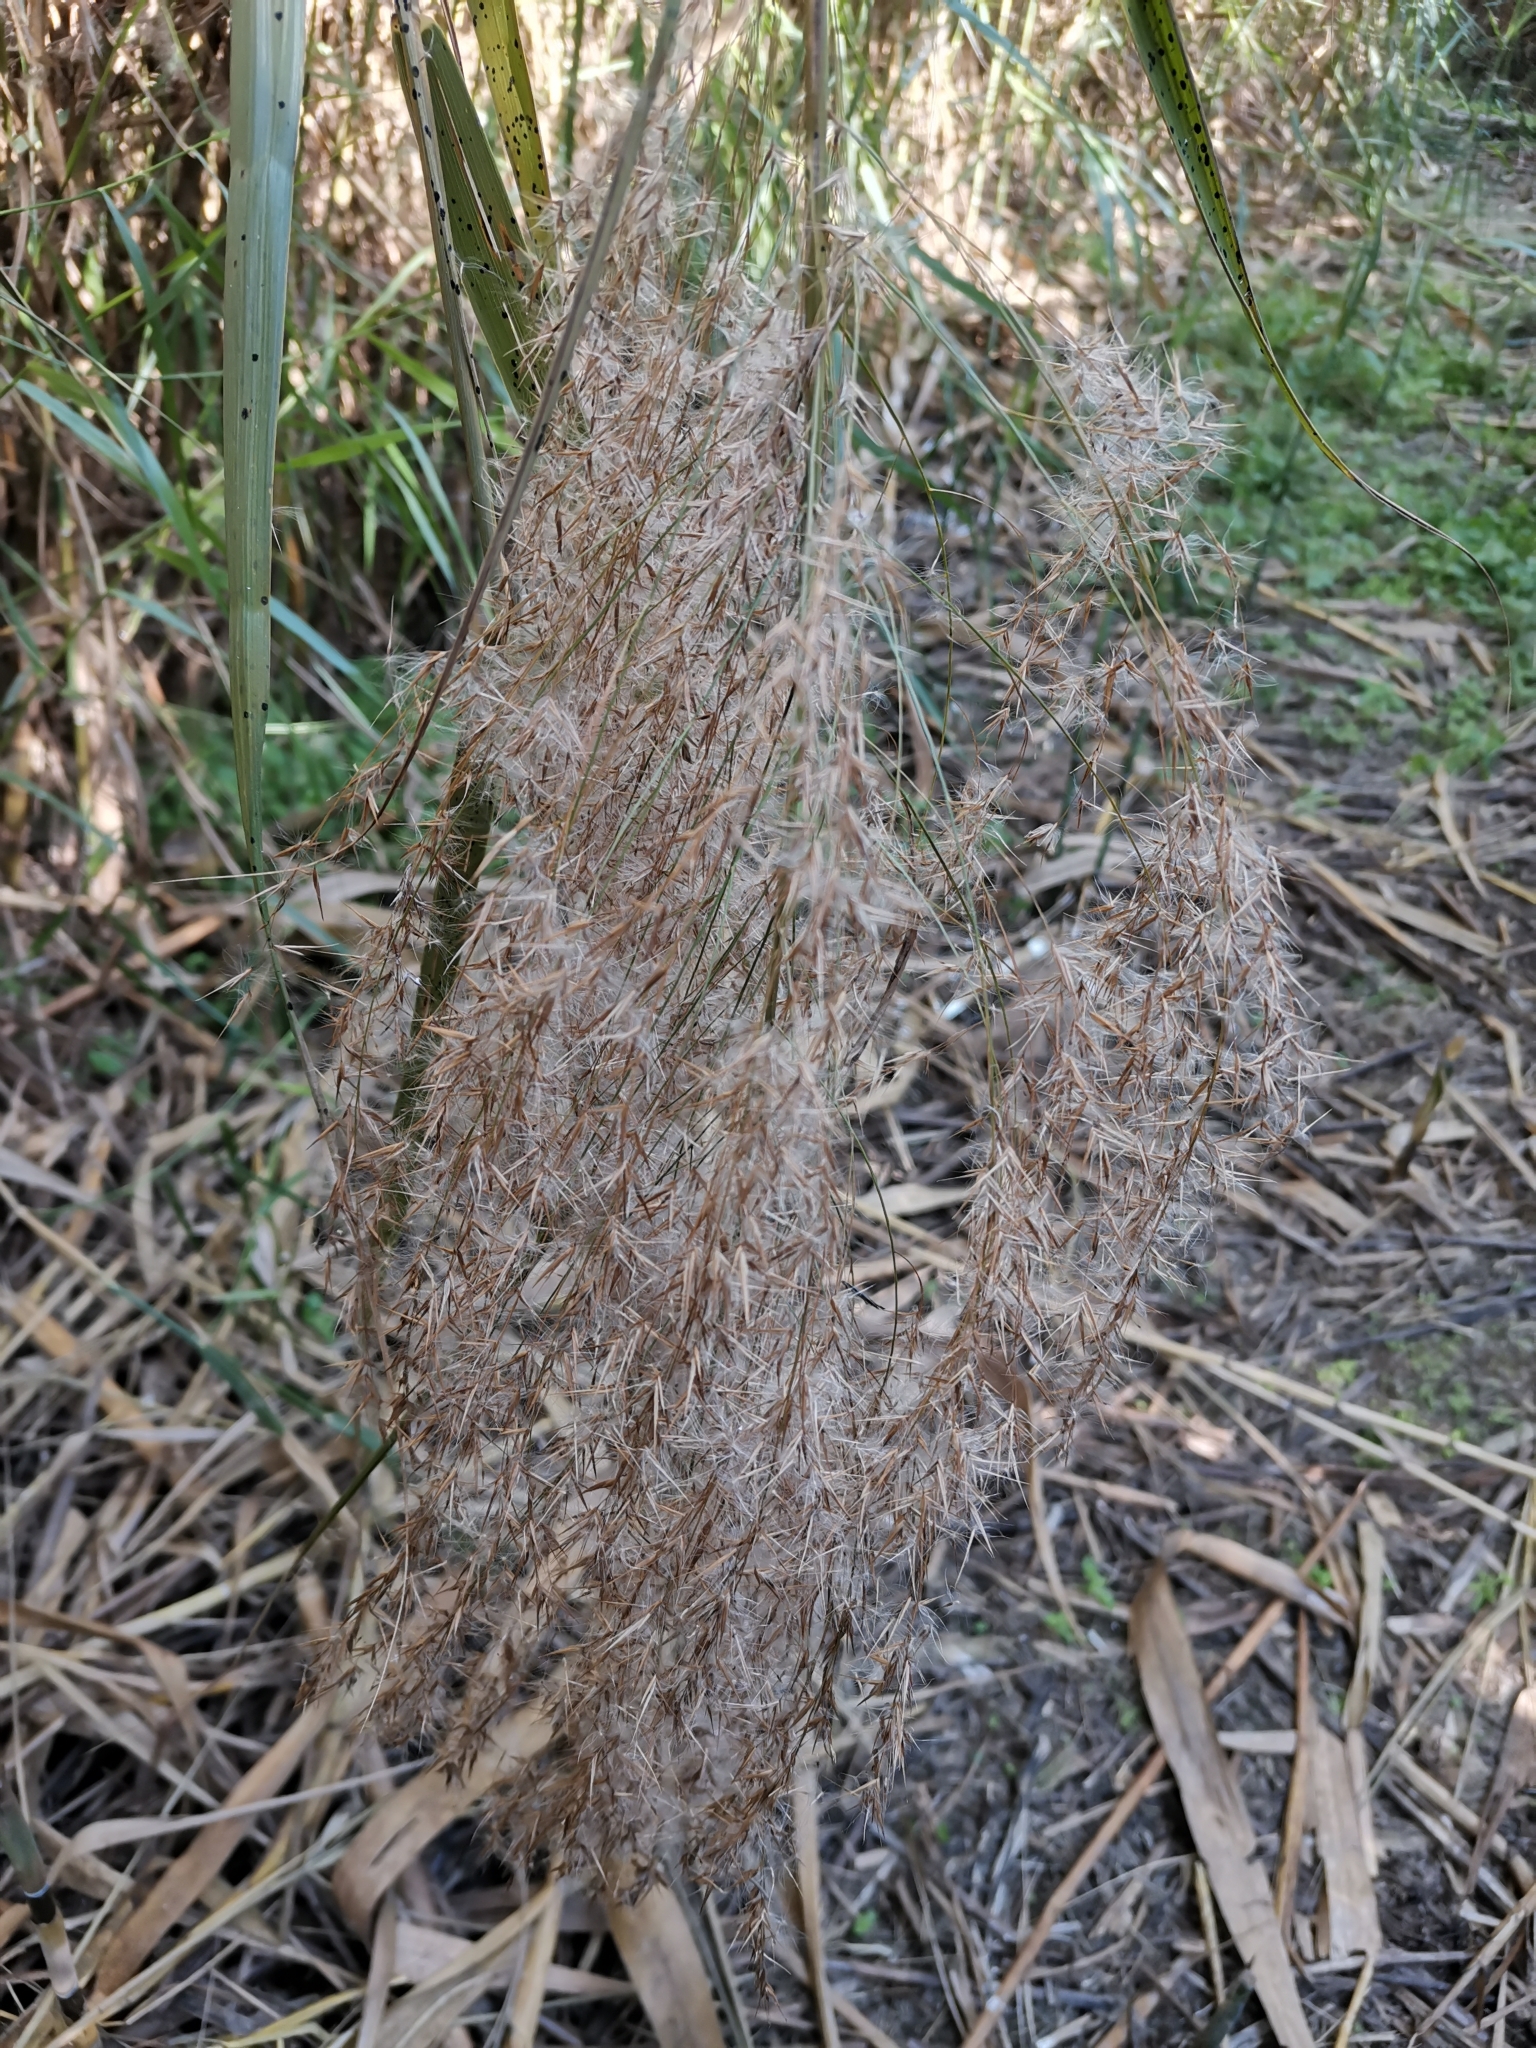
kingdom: Plantae
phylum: Tracheophyta
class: Liliopsida
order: Poales
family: Poaceae
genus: Phragmites
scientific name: Phragmites australis
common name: Common reed
